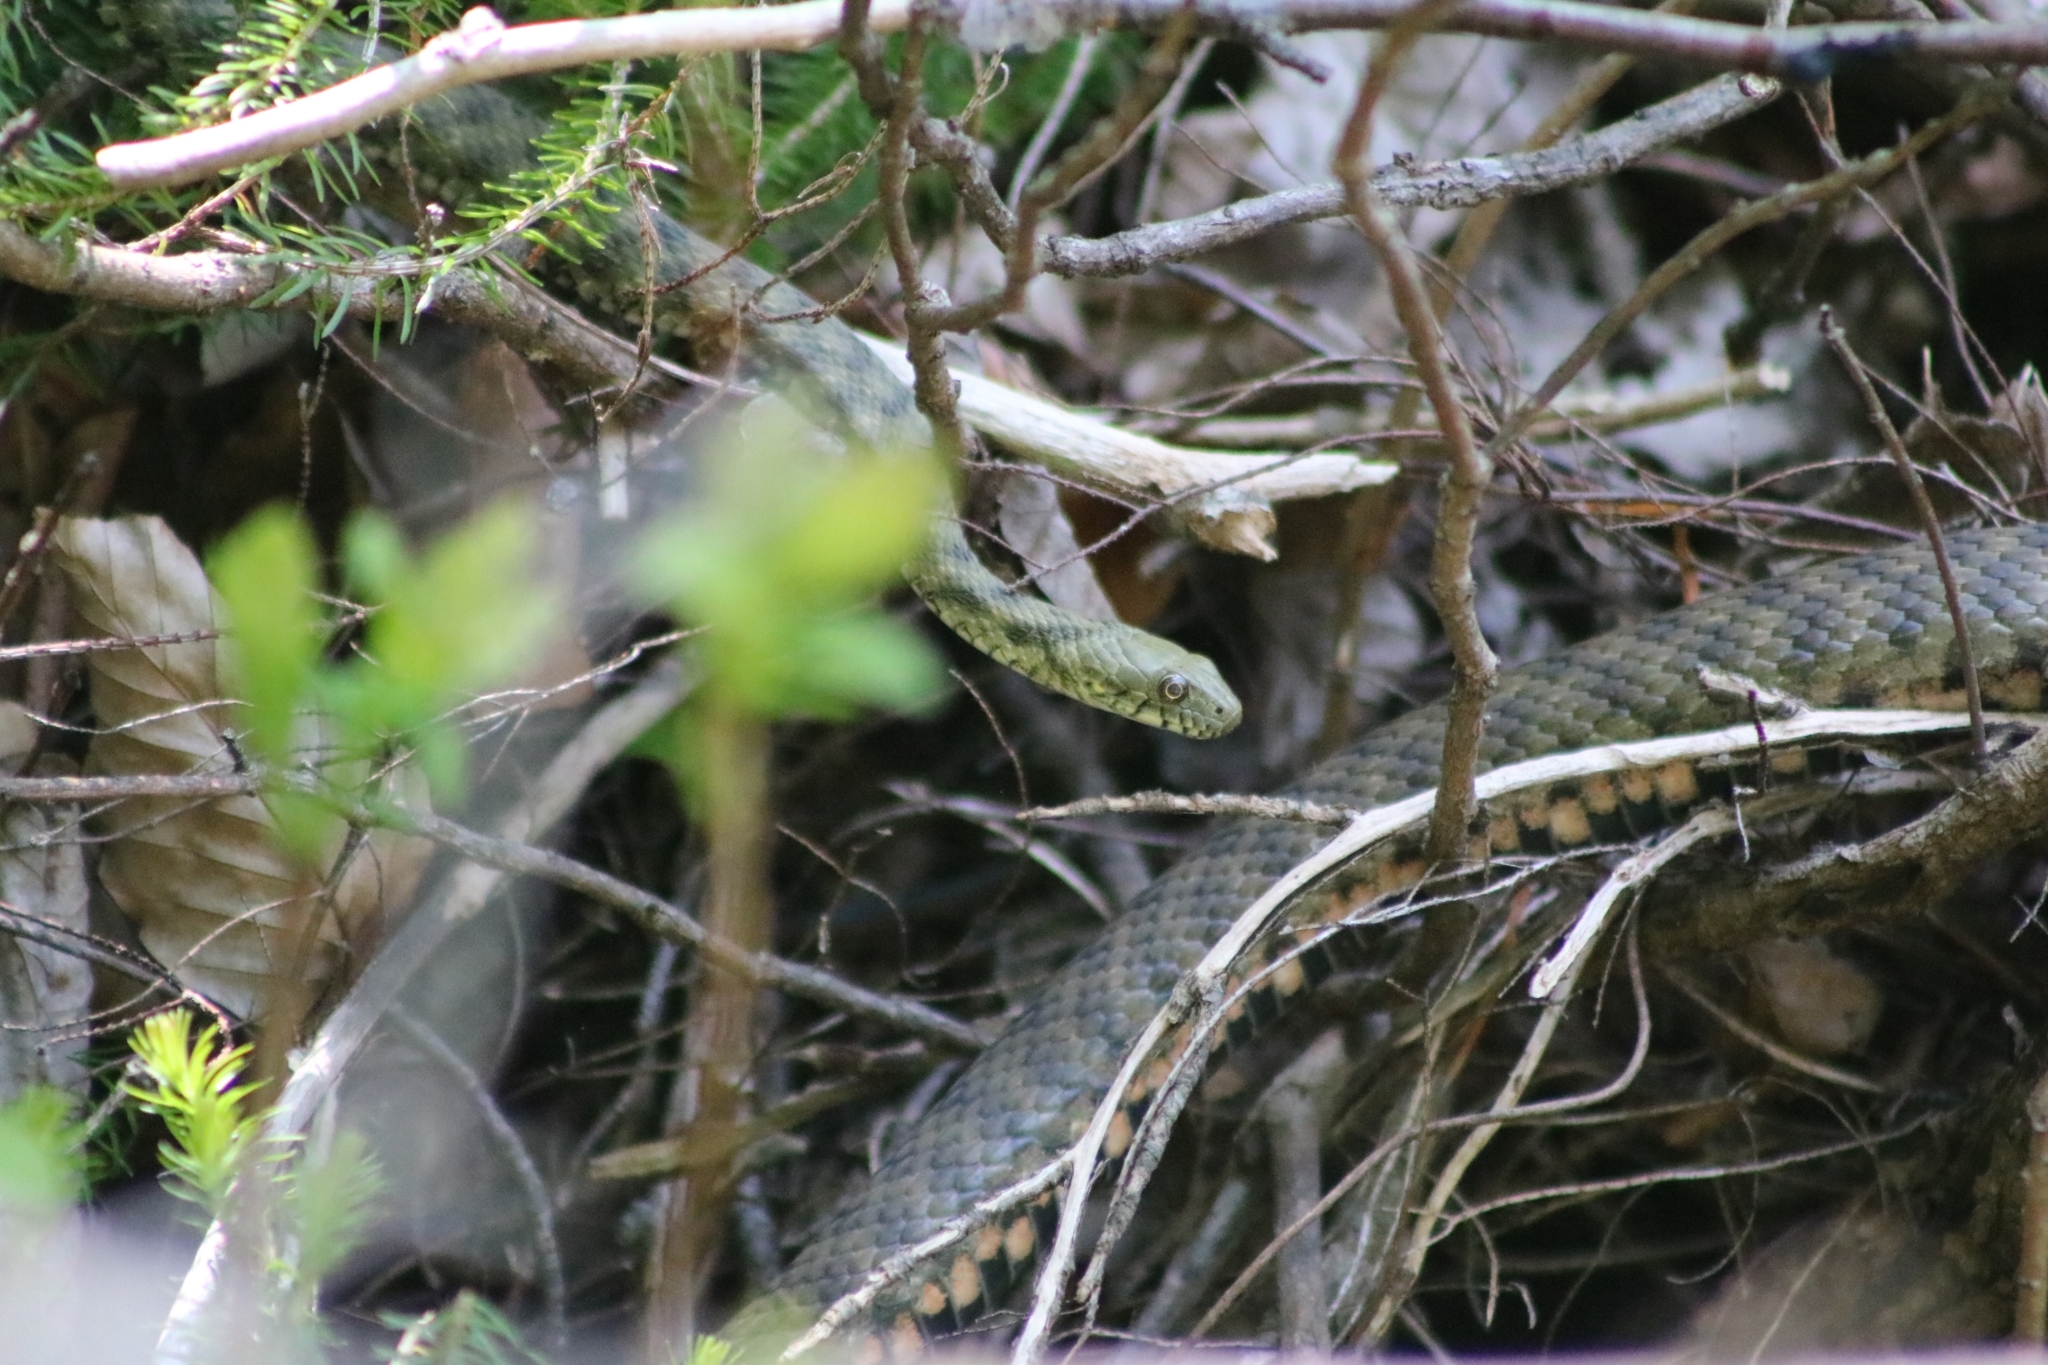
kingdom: Animalia
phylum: Chordata
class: Squamata
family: Colubridae
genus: Natrix
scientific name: Natrix tessellata
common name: Dice snake
